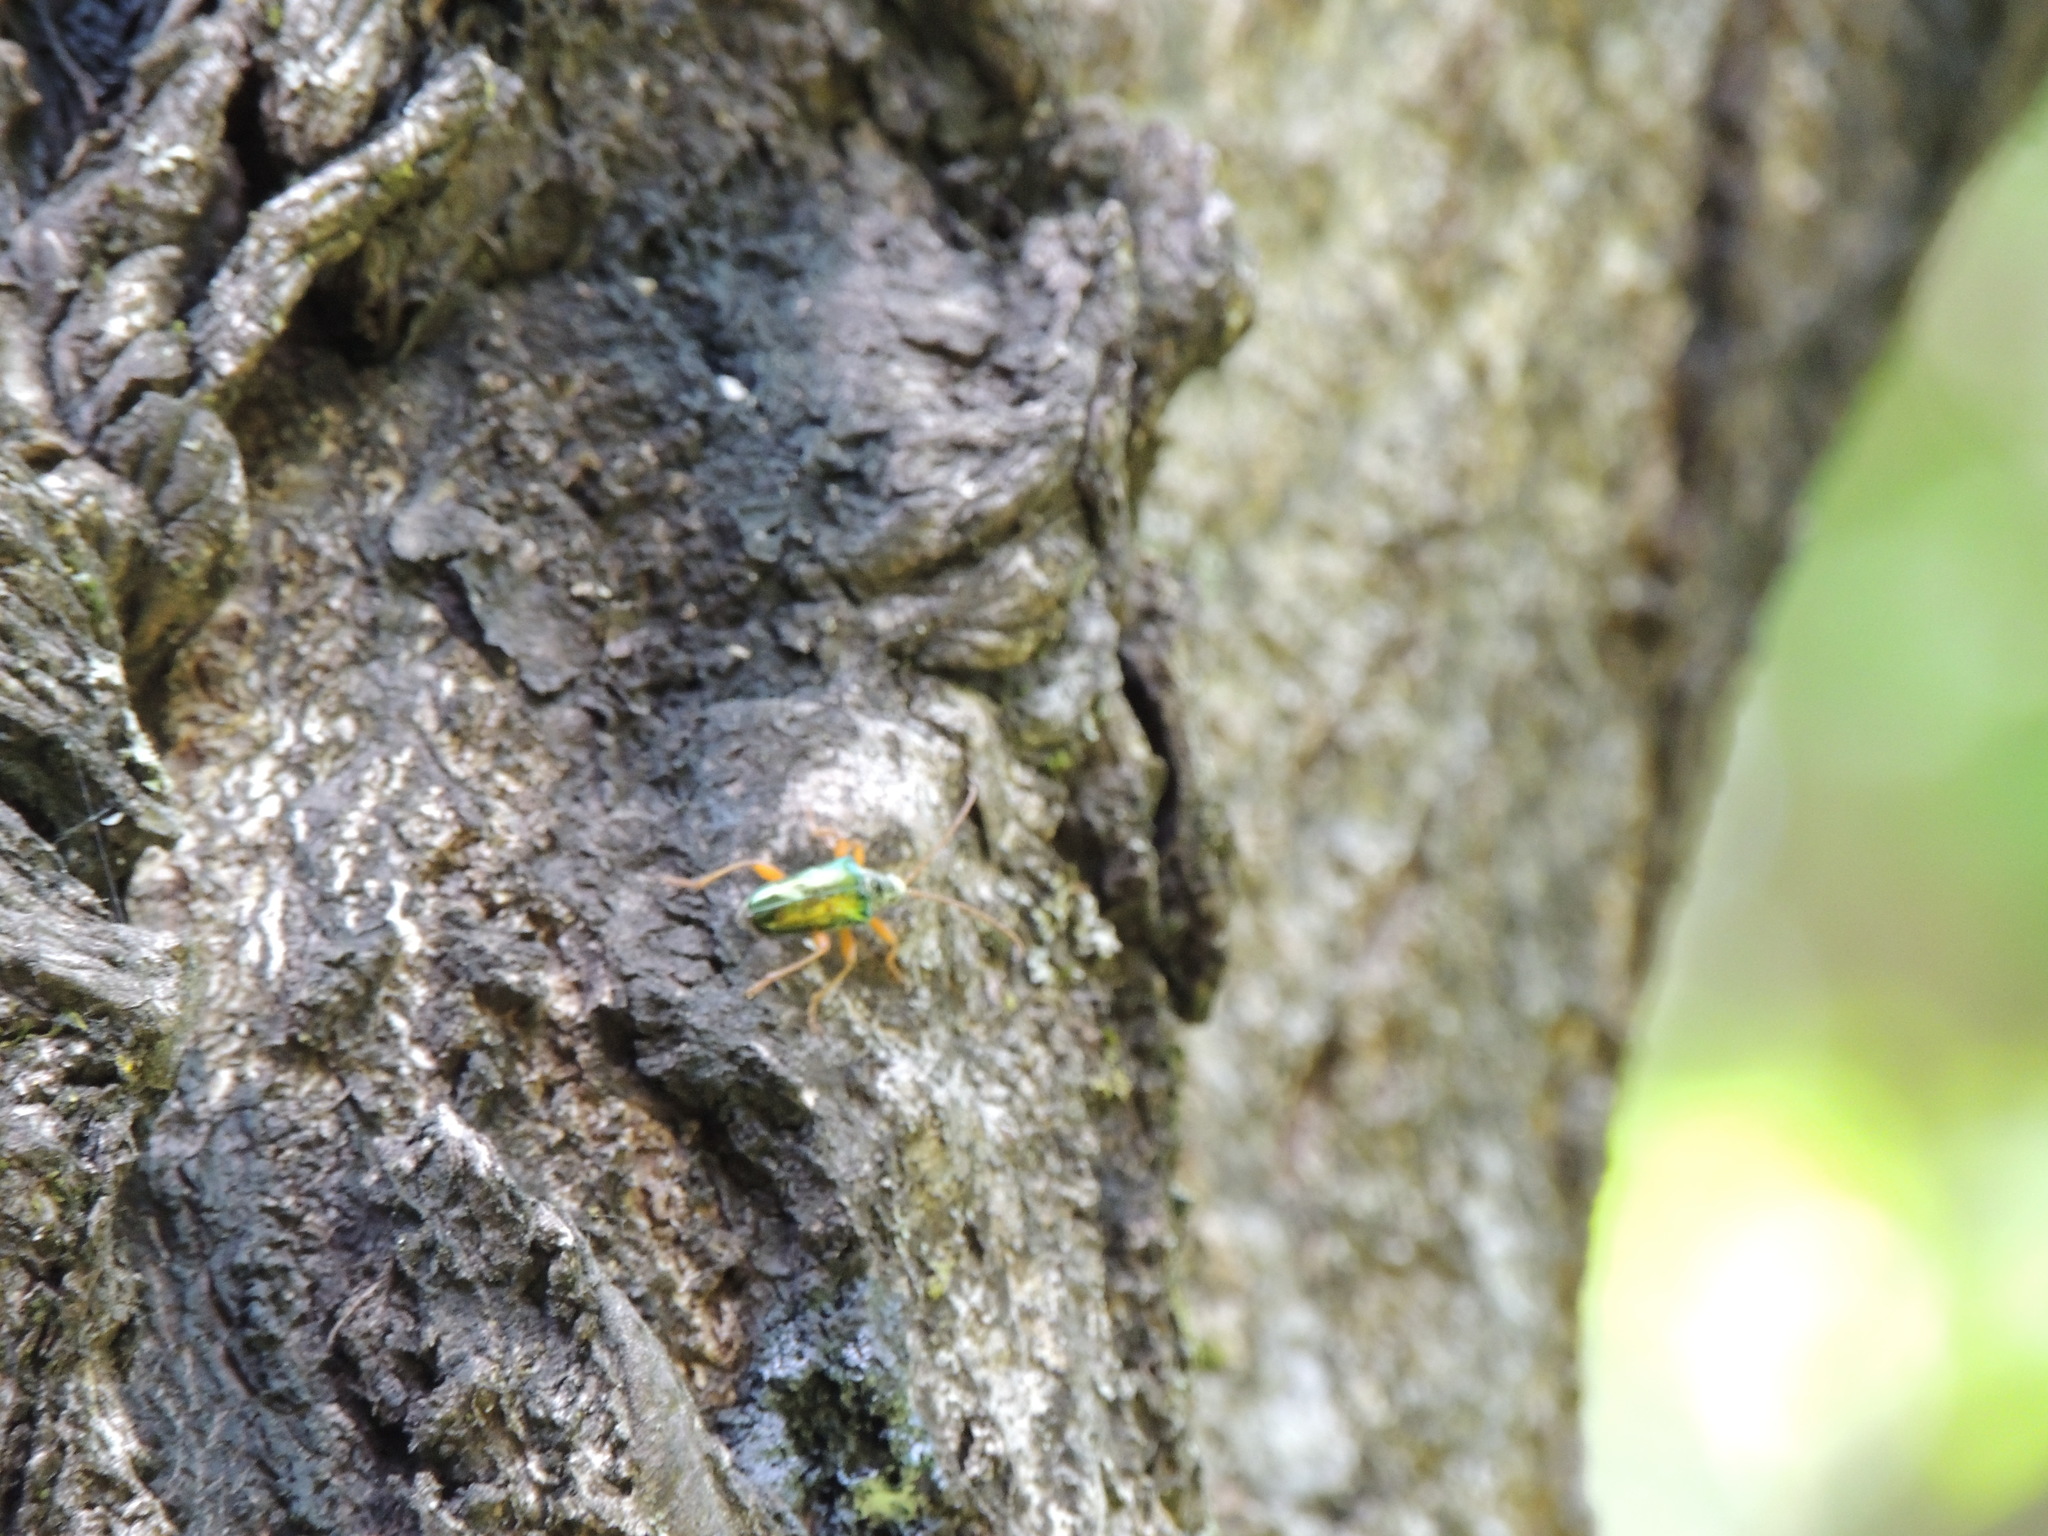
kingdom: Animalia
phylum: Arthropoda
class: Insecta
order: Coleoptera
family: Cerambycidae
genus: Gaurotes
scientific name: Gaurotes cyanipennis
